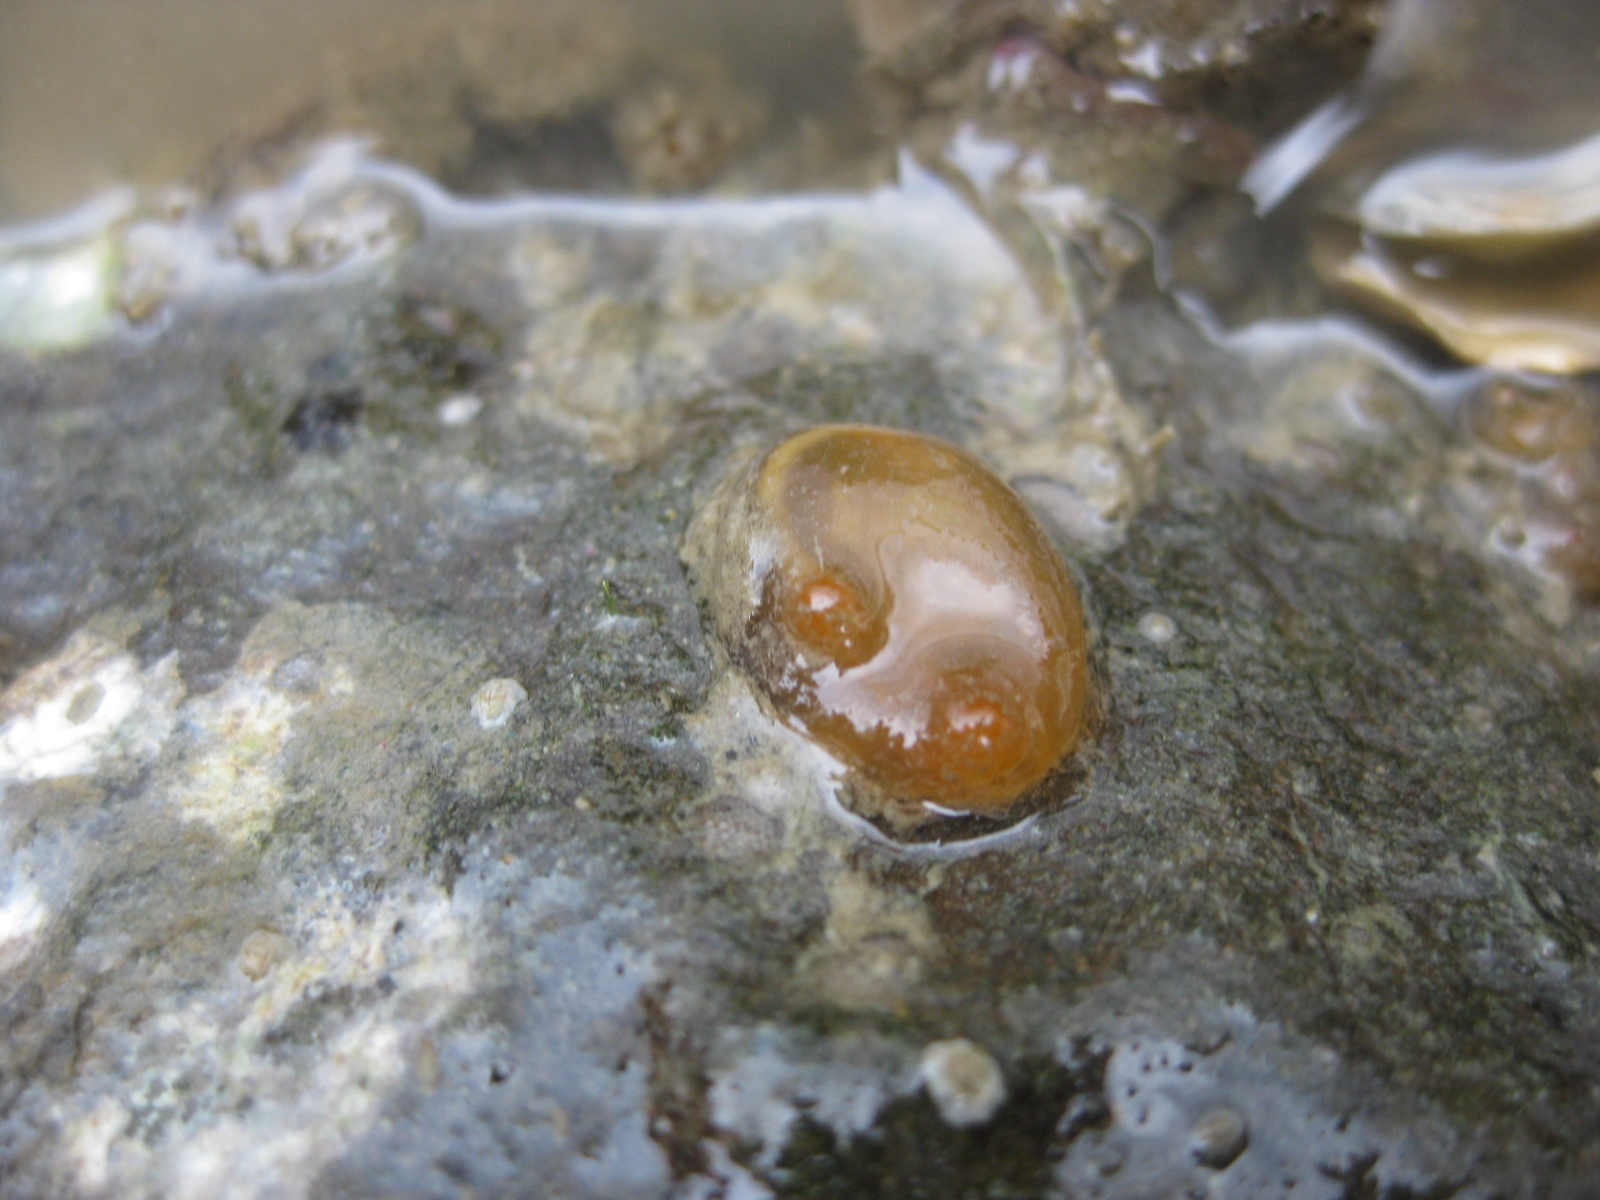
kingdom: Animalia
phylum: Chordata
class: Ascidiacea
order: Phlebobranchia
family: Corellidae
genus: Corella
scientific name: Corella eumyota
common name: Orange-tipped sea squirt
